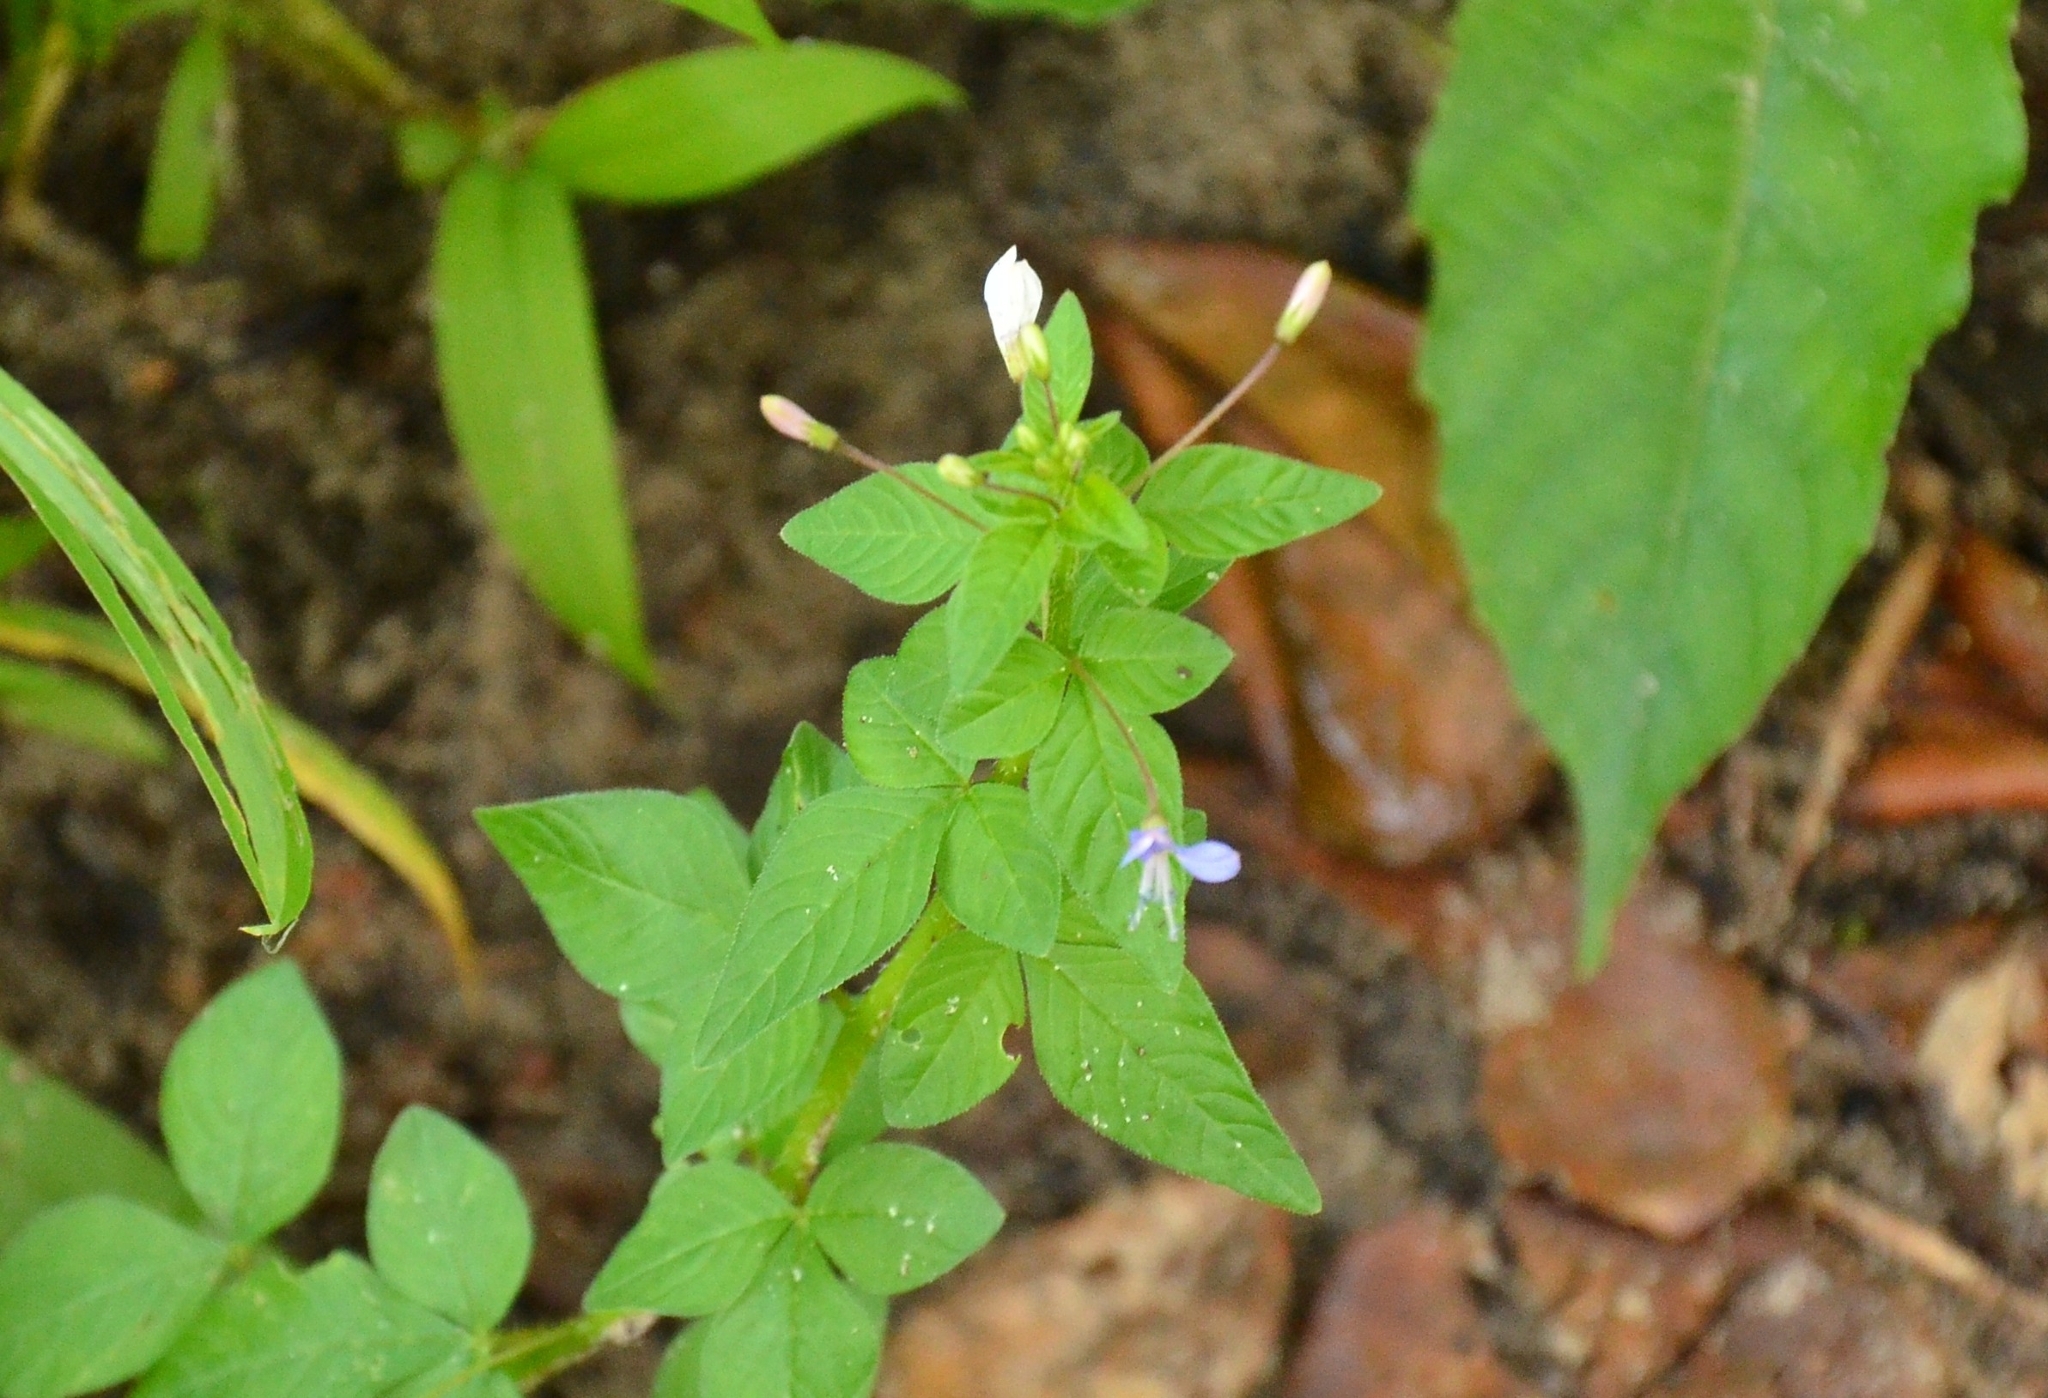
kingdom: Plantae
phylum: Tracheophyta
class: Magnoliopsida
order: Brassicales
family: Cleomaceae
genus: Sieruela
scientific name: Sieruela rutidosperma
